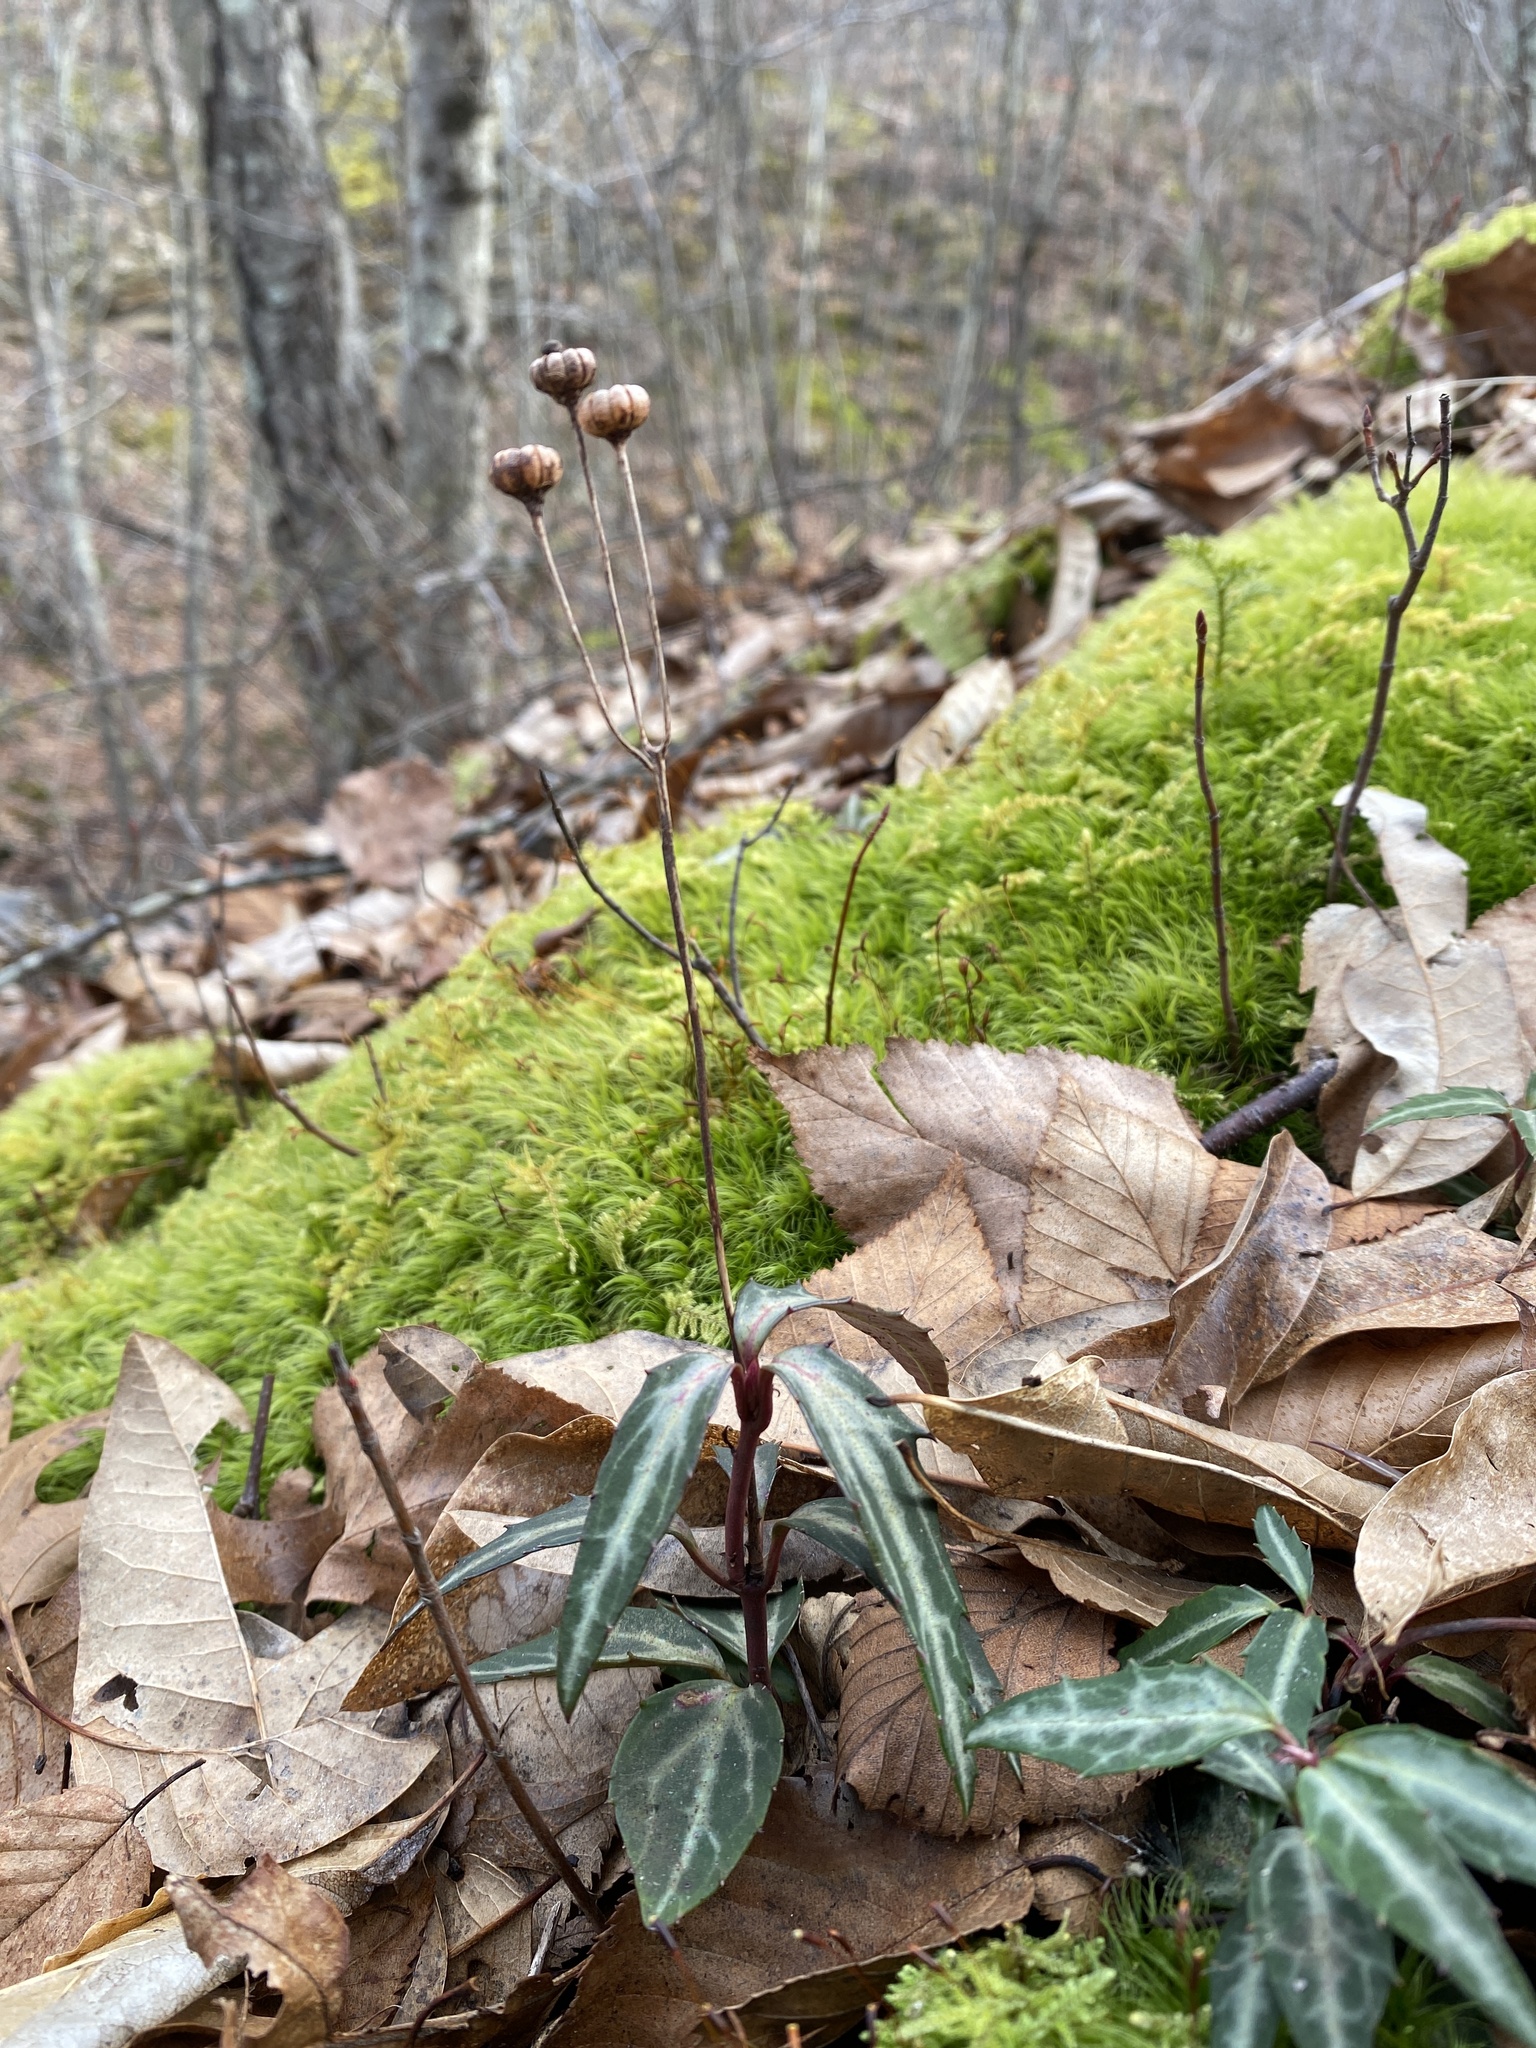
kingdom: Plantae
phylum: Tracheophyta
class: Magnoliopsida
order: Ericales
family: Ericaceae
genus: Chimaphila
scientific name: Chimaphila maculata
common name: Spotted pipsissewa
